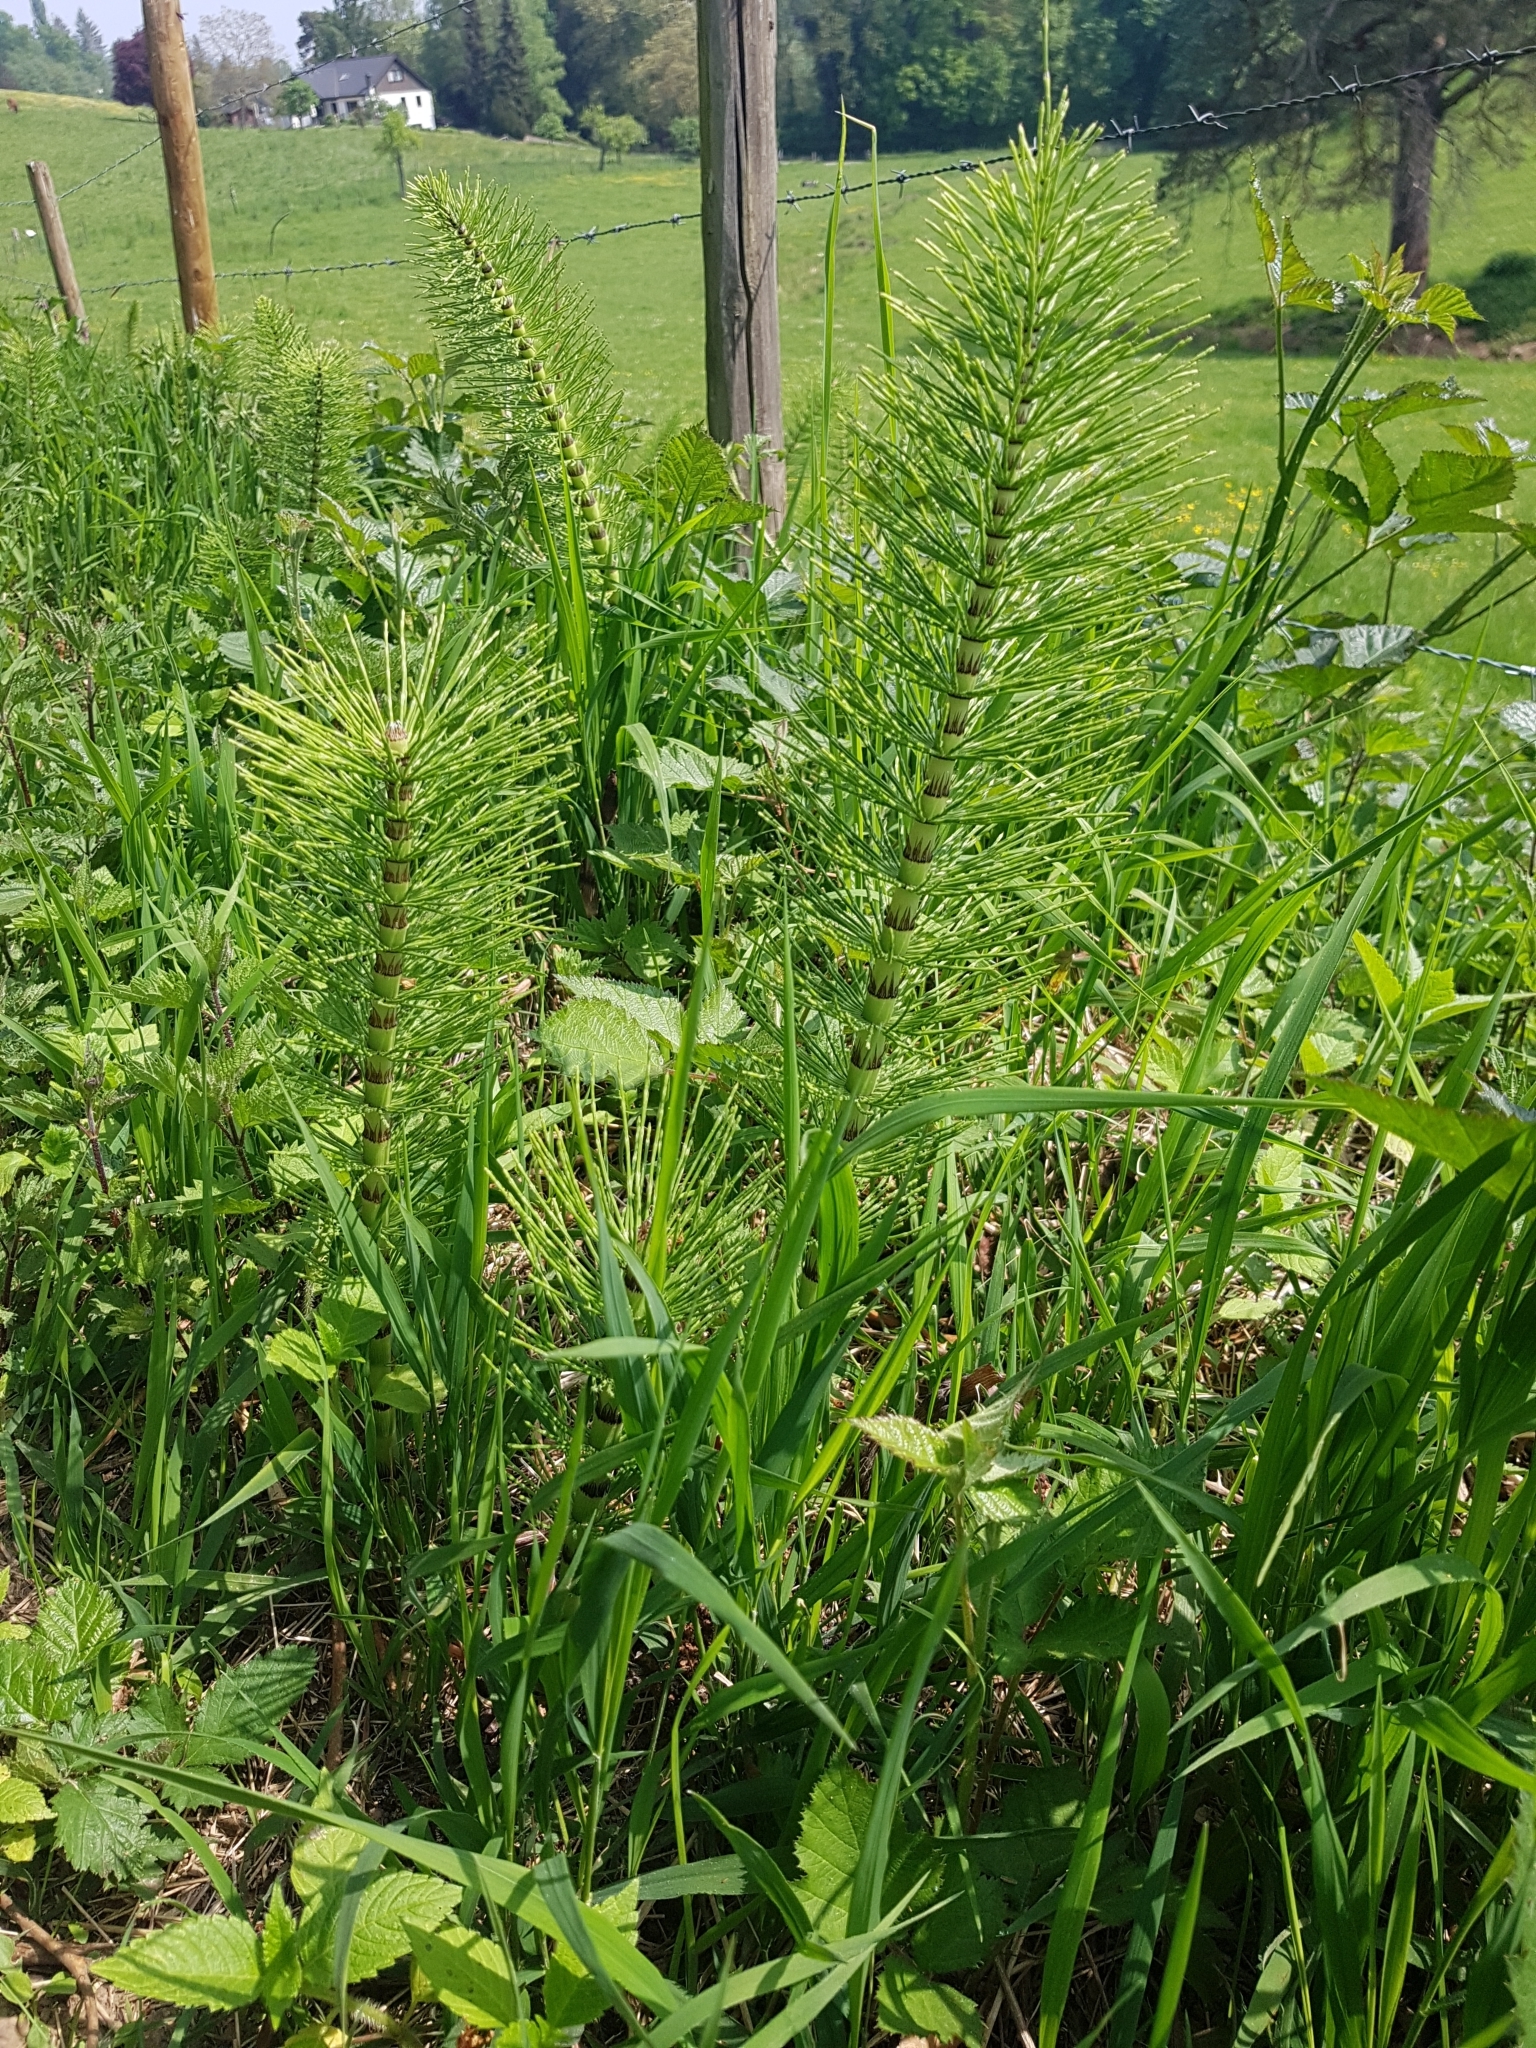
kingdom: Plantae
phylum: Tracheophyta
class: Polypodiopsida
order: Equisetales
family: Equisetaceae
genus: Equisetum
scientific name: Equisetum telmateia
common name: Great horsetail
